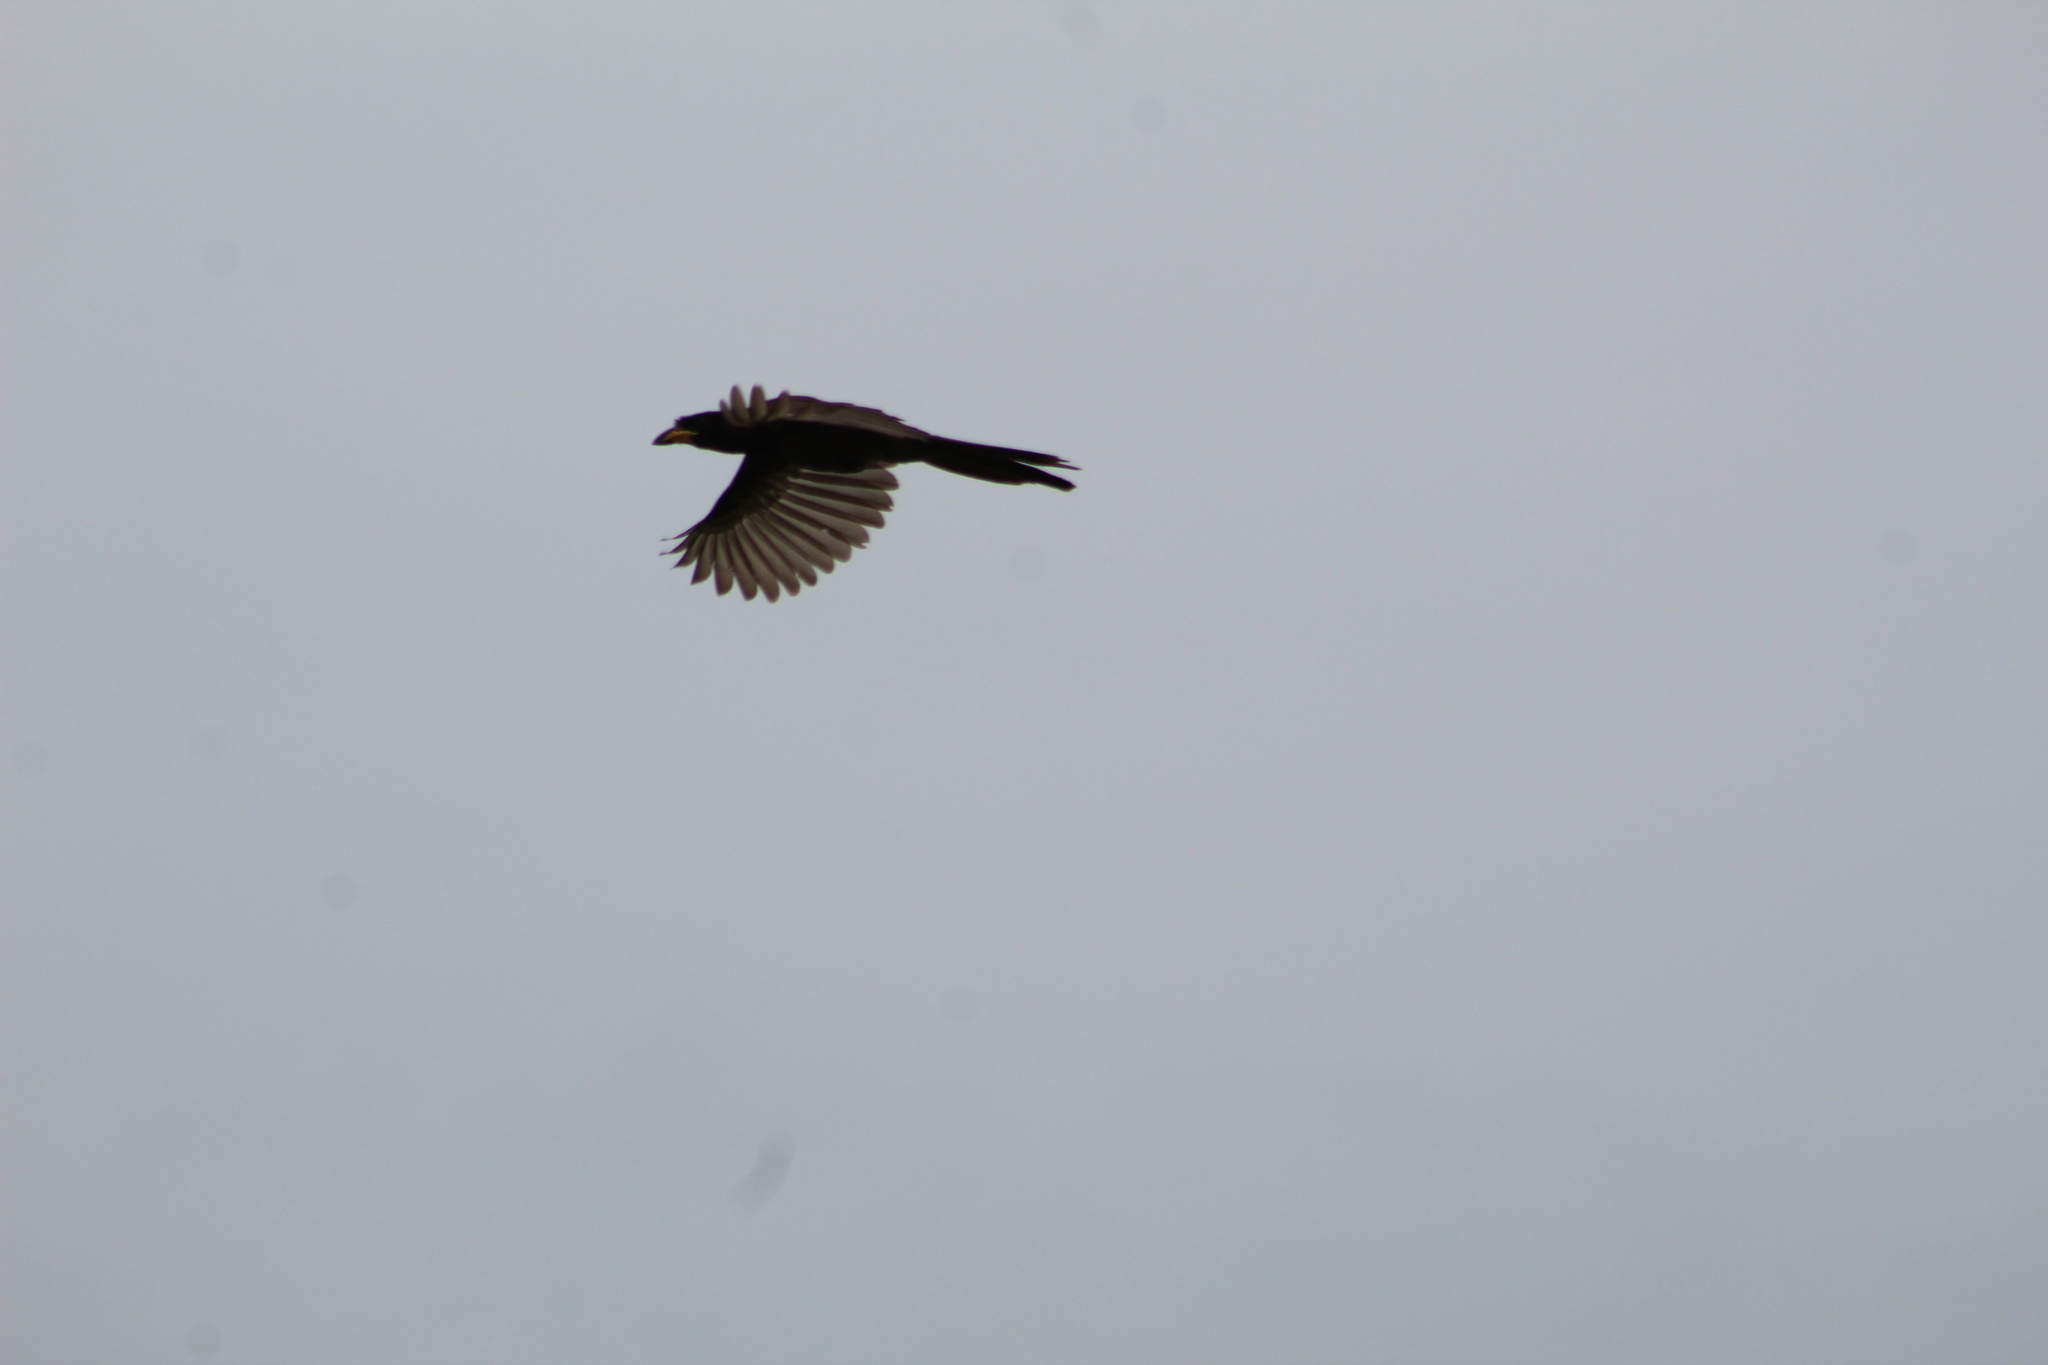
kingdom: Animalia
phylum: Chordata
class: Aves
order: Passeriformes
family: Corvidae
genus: Psilorhinus
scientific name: Psilorhinus morio
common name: Brown jay
